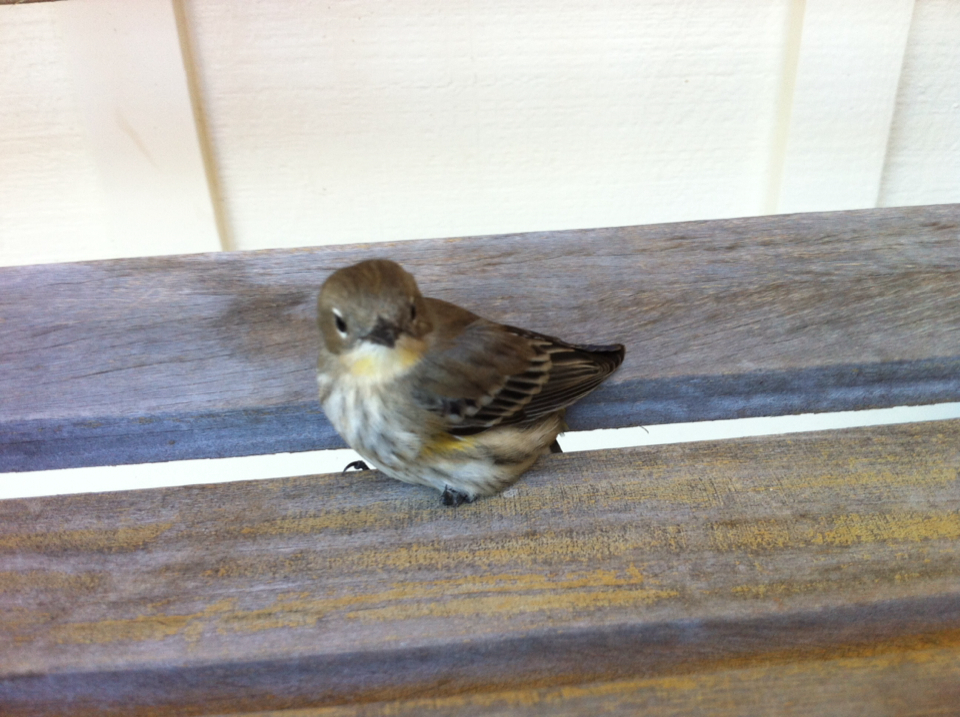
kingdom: Animalia
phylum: Chordata
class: Aves
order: Passeriformes
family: Parulidae
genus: Setophaga
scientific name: Setophaga coronata
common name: Myrtle warbler
